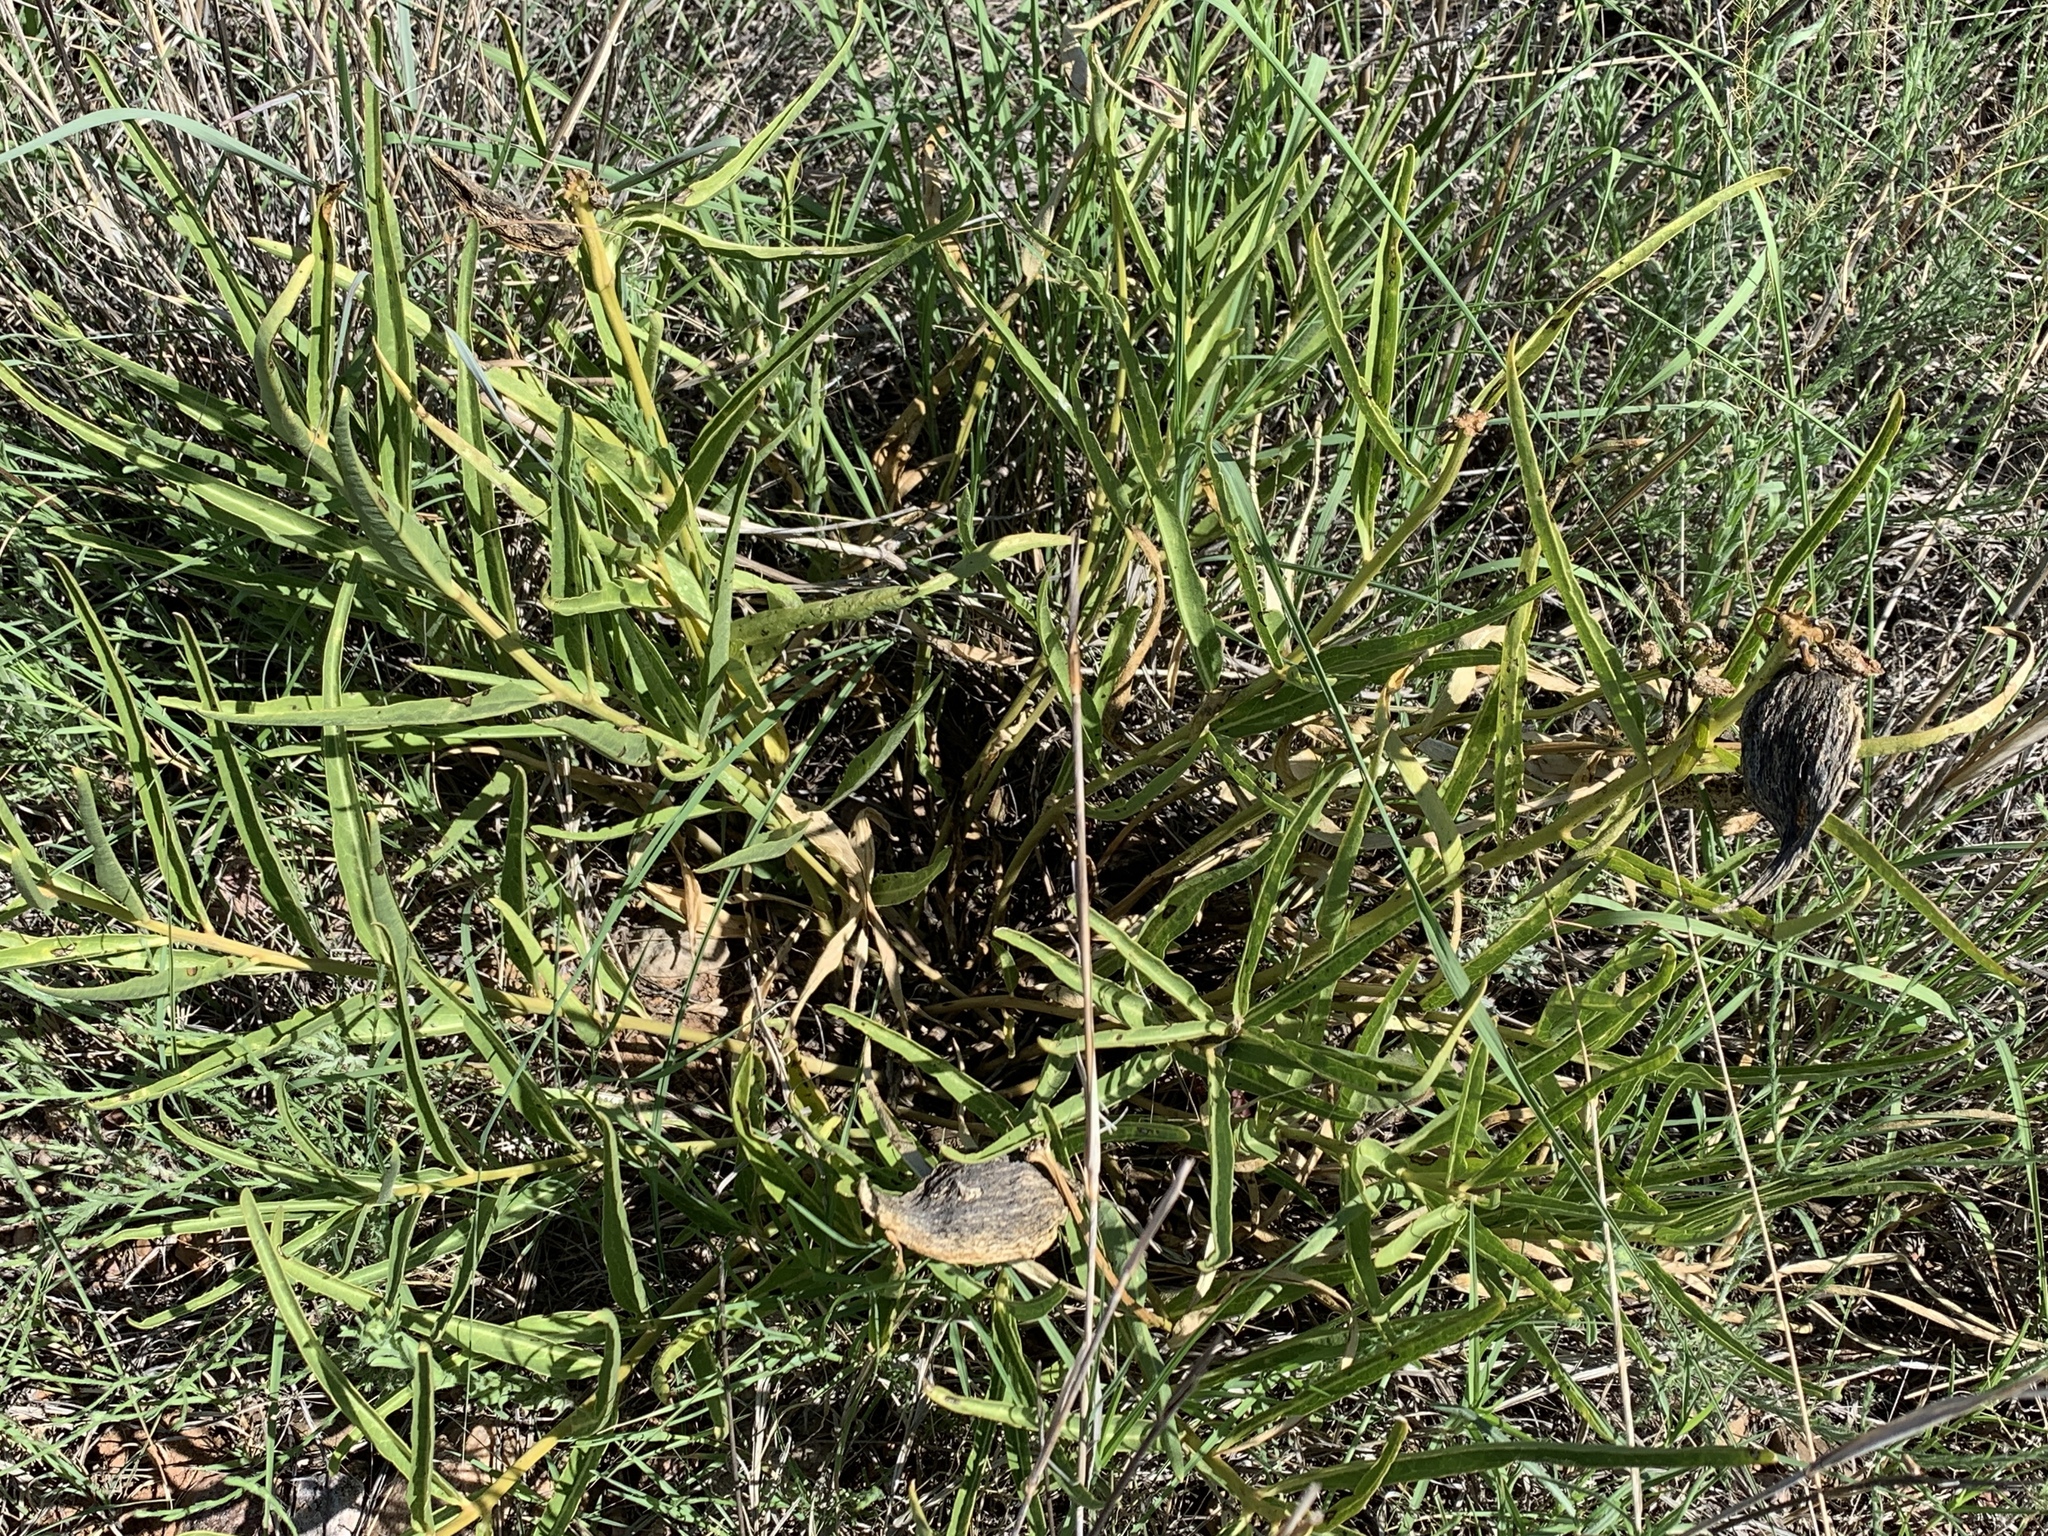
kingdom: Plantae
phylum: Tracheophyta
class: Magnoliopsida
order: Gentianales
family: Apocynaceae
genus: Asclepias
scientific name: Asclepias asperula
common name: Antelope horns
